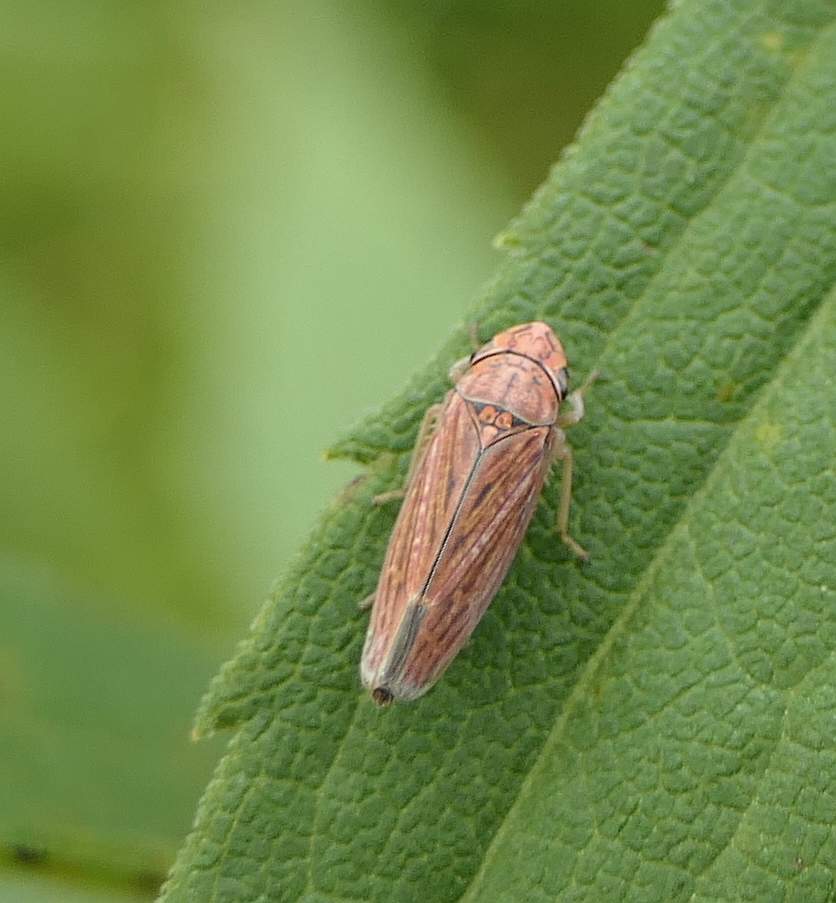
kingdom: Animalia
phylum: Arthropoda
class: Insecta
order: Hemiptera
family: Cicadellidae
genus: Neokolla
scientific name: Neokolla hieroglyphica
